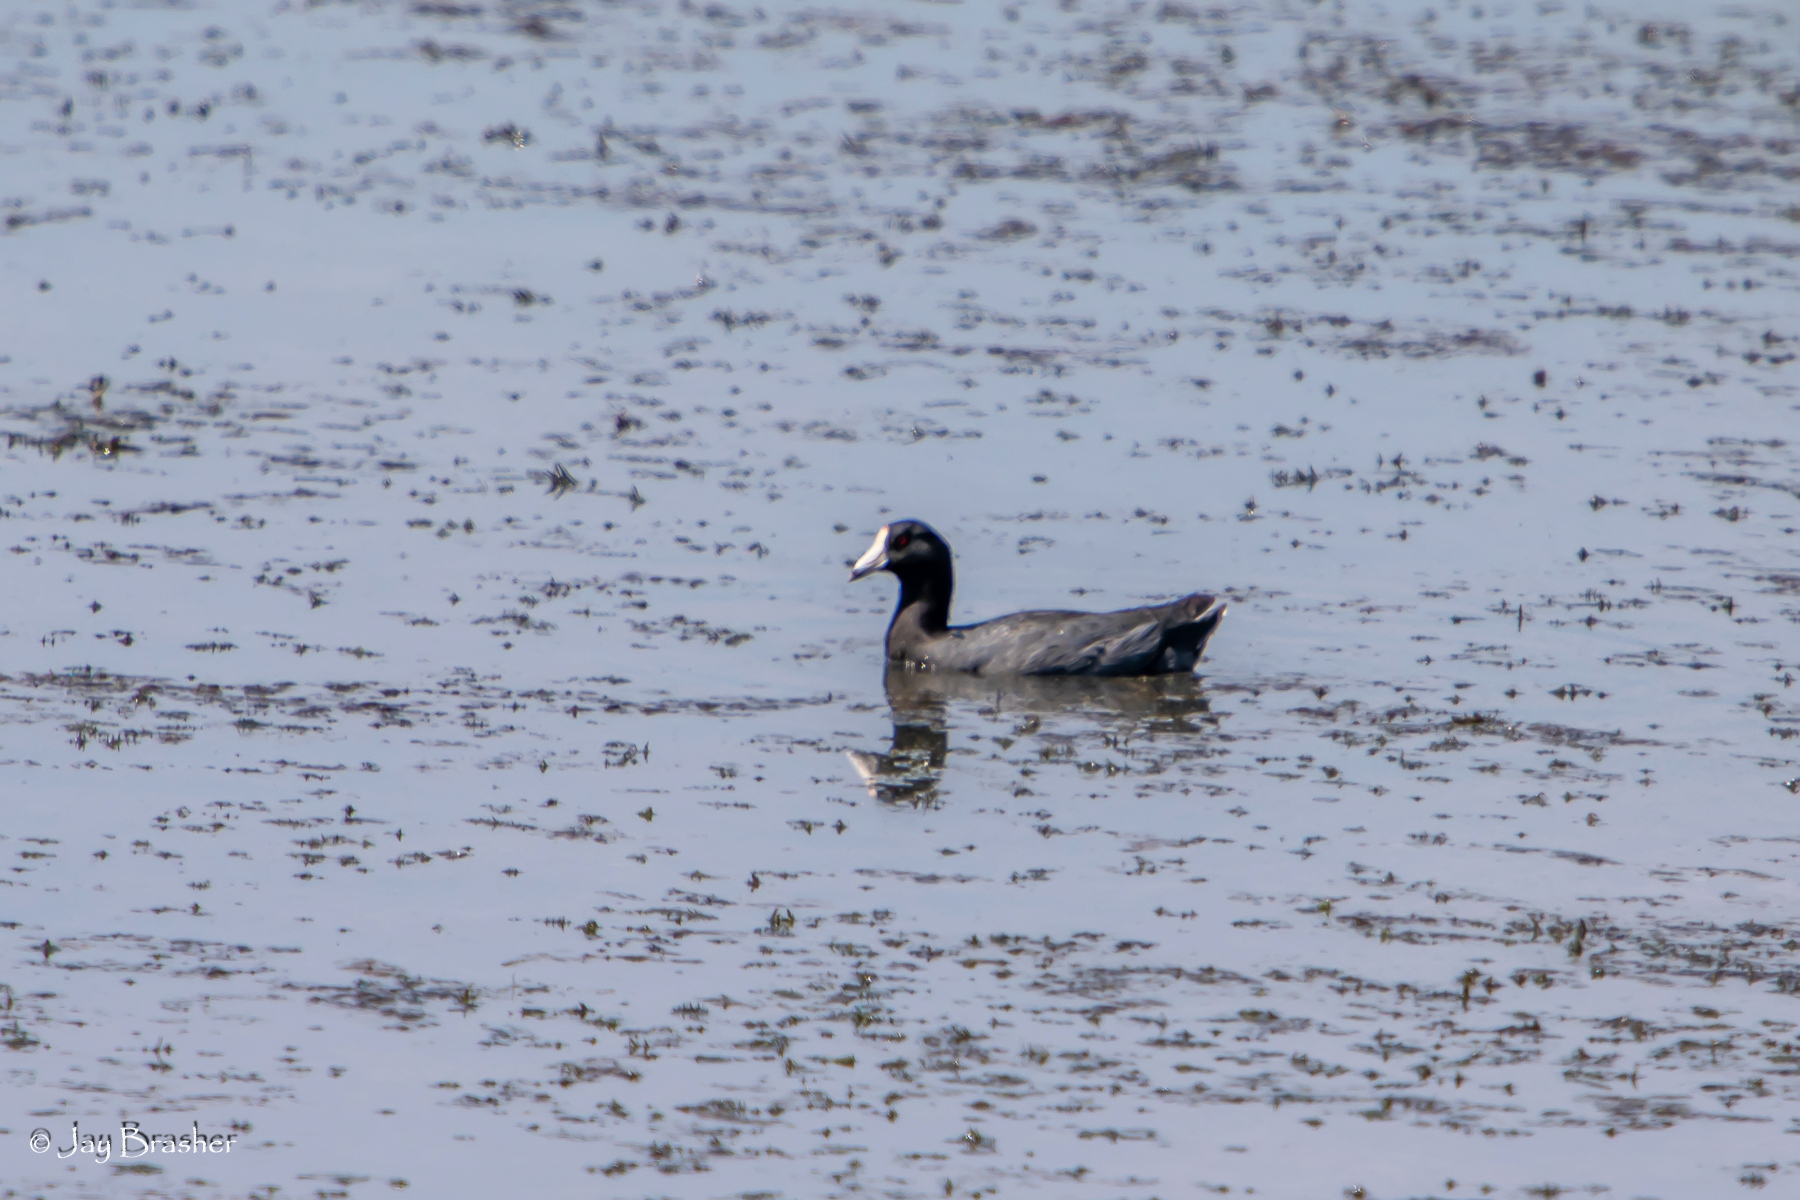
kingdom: Animalia
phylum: Chordata
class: Aves
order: Gruiformes
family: Rallidae
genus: Fulica
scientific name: Fulica americana
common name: American coot
